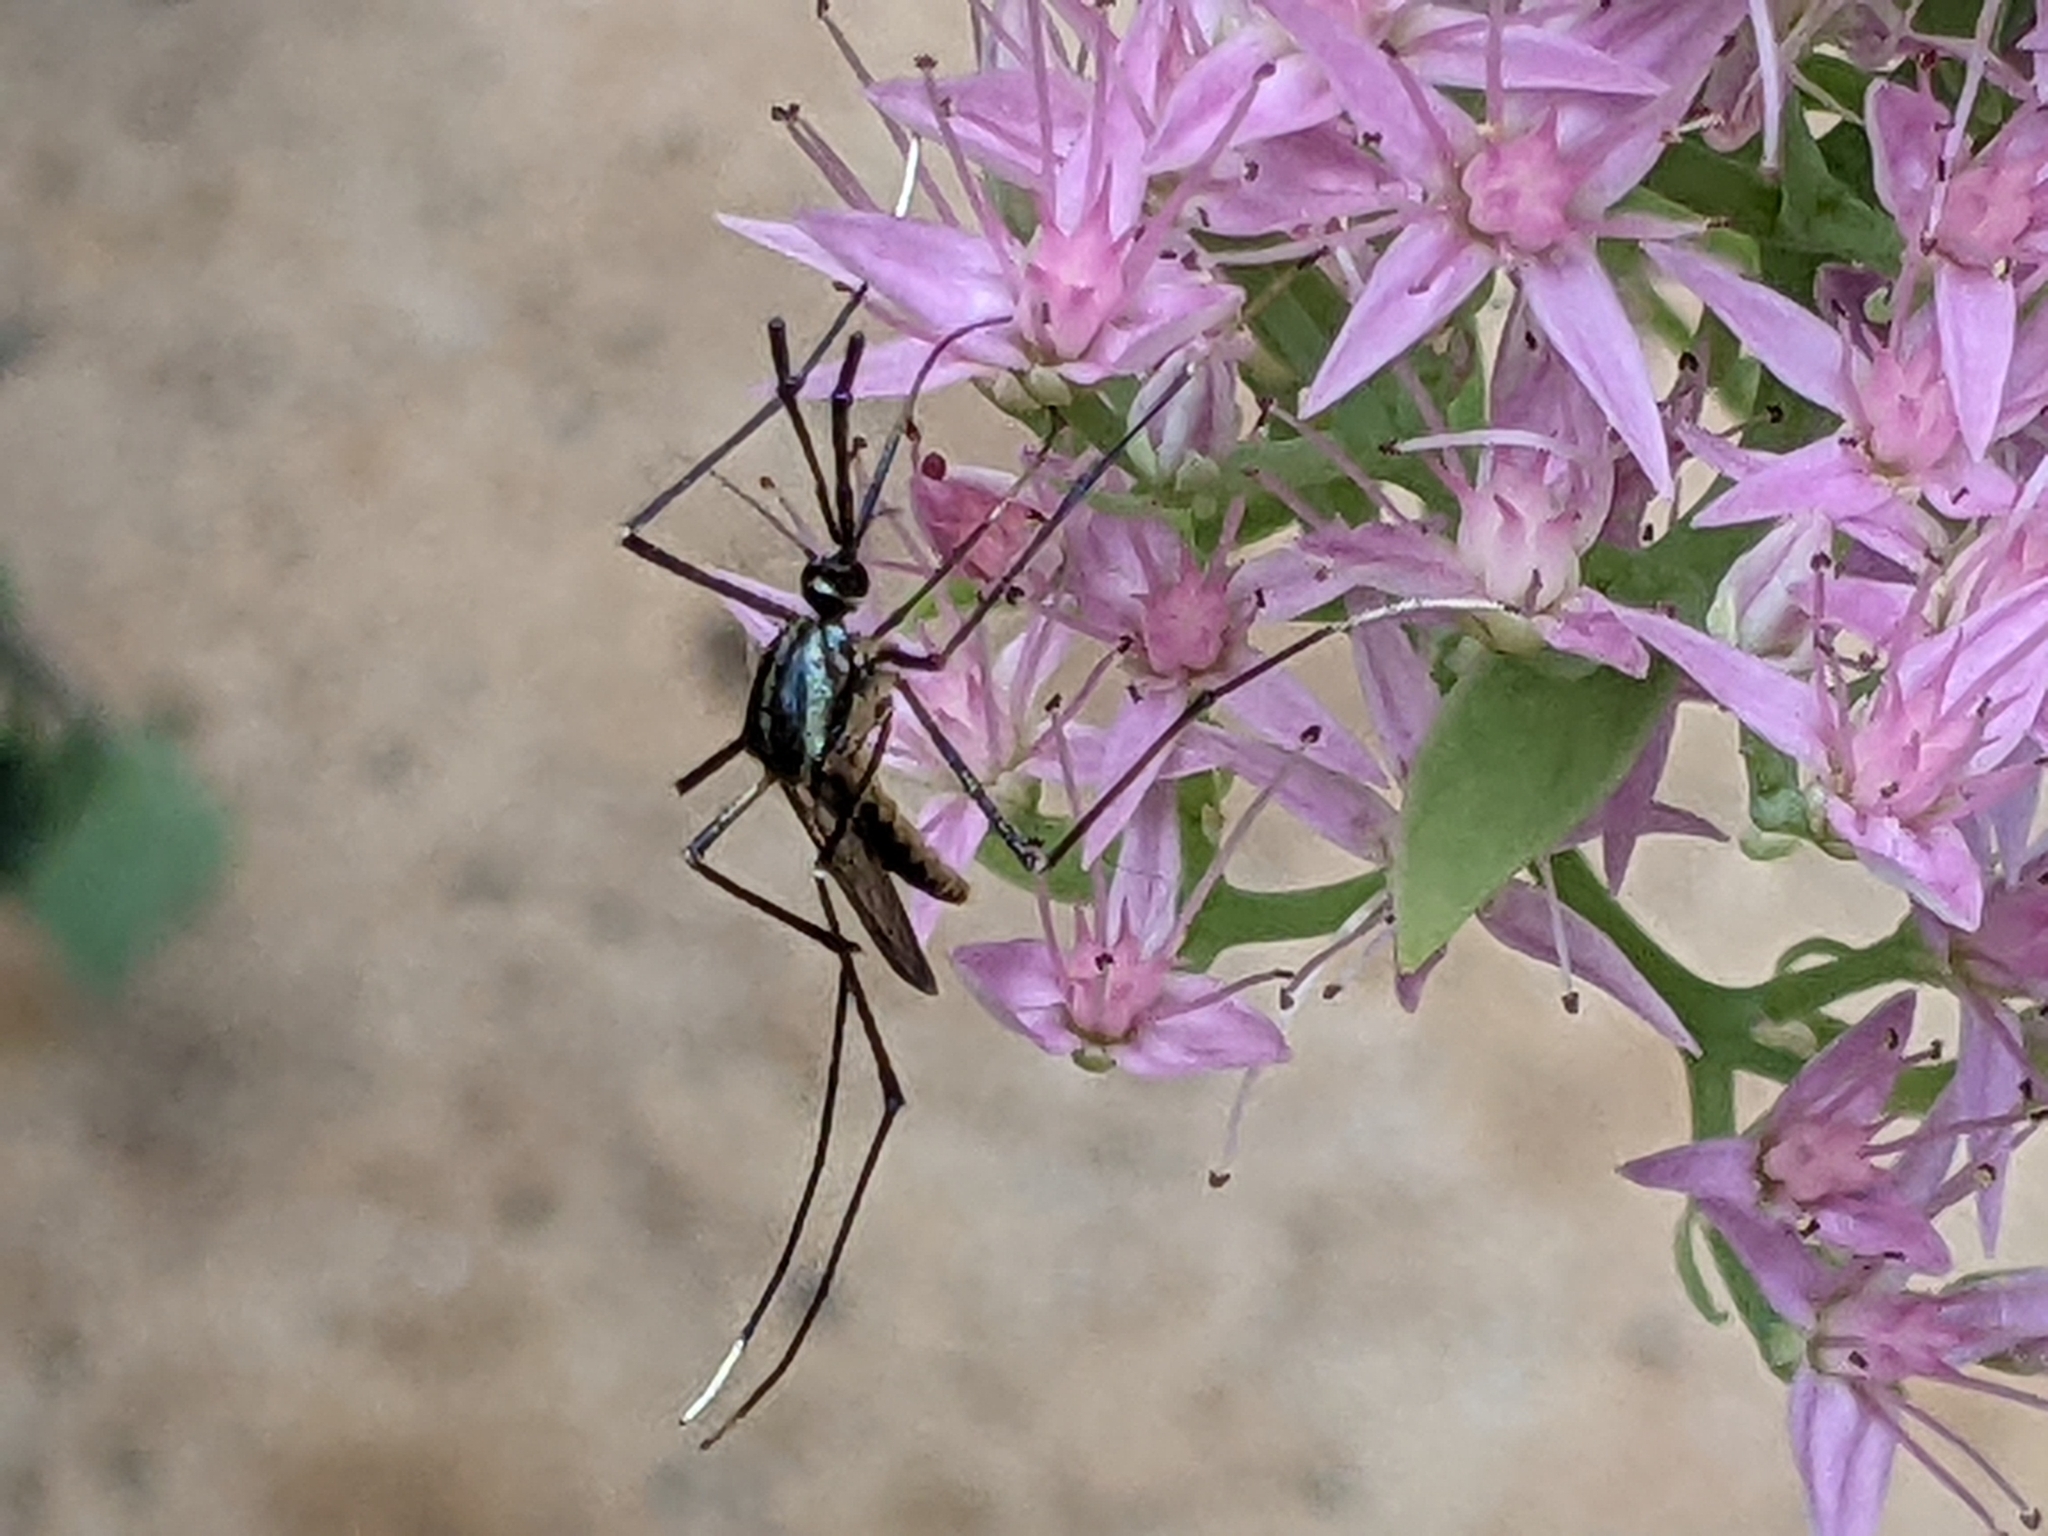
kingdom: Animalia
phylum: Arthropoda
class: Insecta
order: Diptera
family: Culicidae
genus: Toxorhynchites
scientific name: Toxorhynchites rutilus
